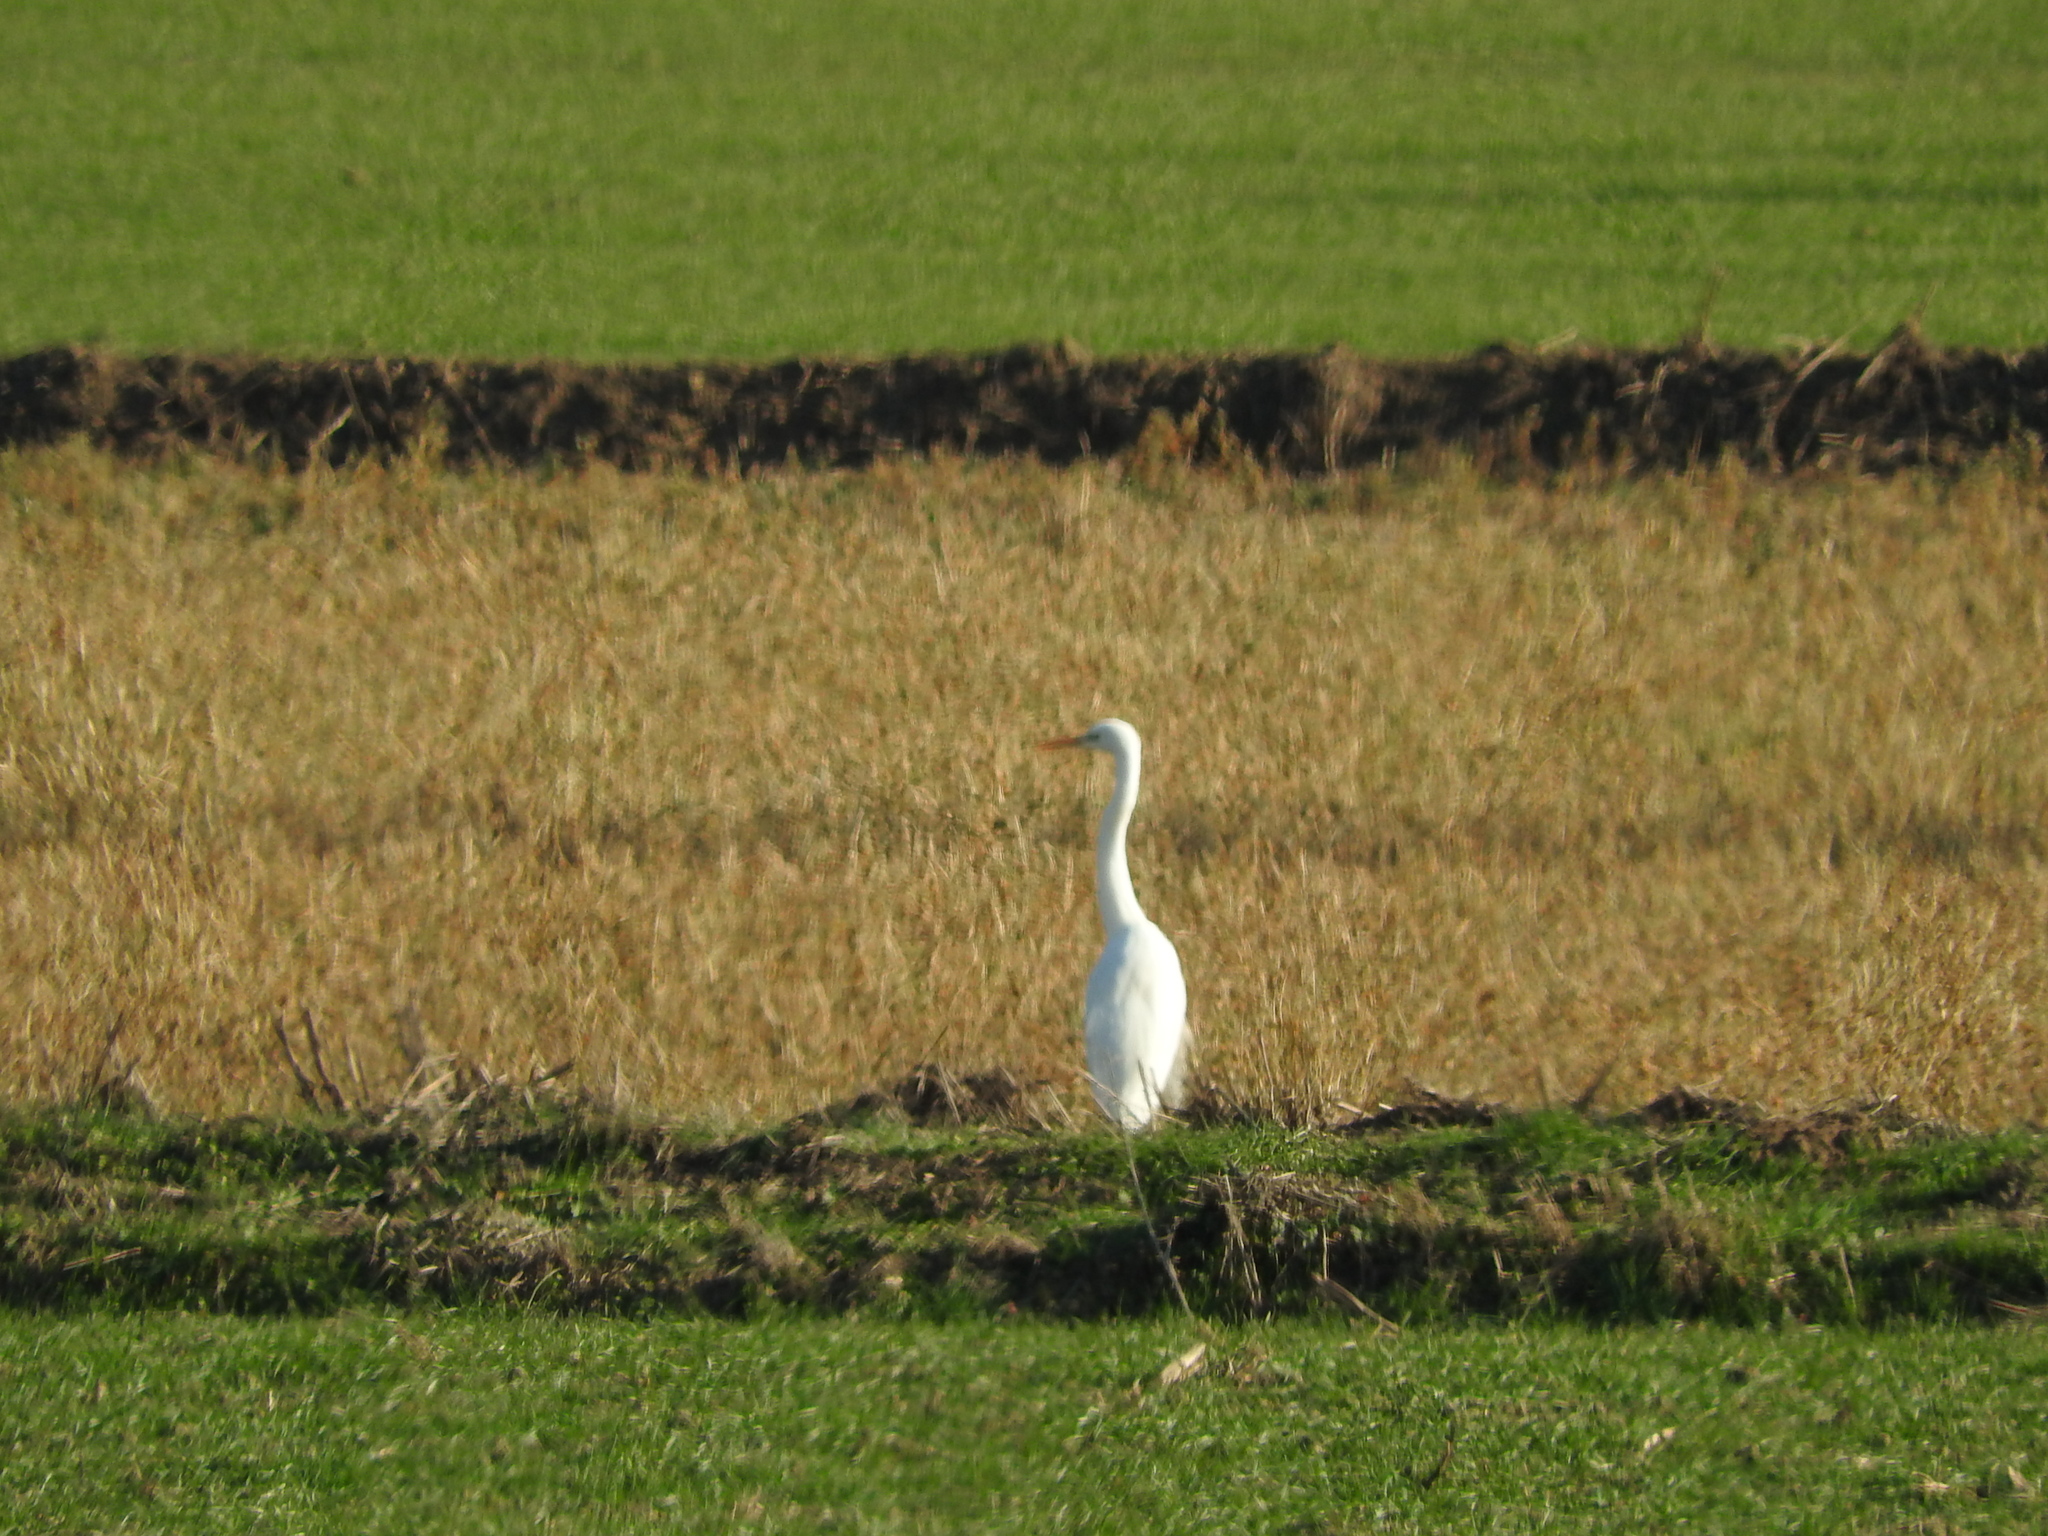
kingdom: Animalia
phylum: Chordata
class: Aves
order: Pelecaniformes
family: Ardeidae
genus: Ardea
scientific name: Ardea alba
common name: Great egret
